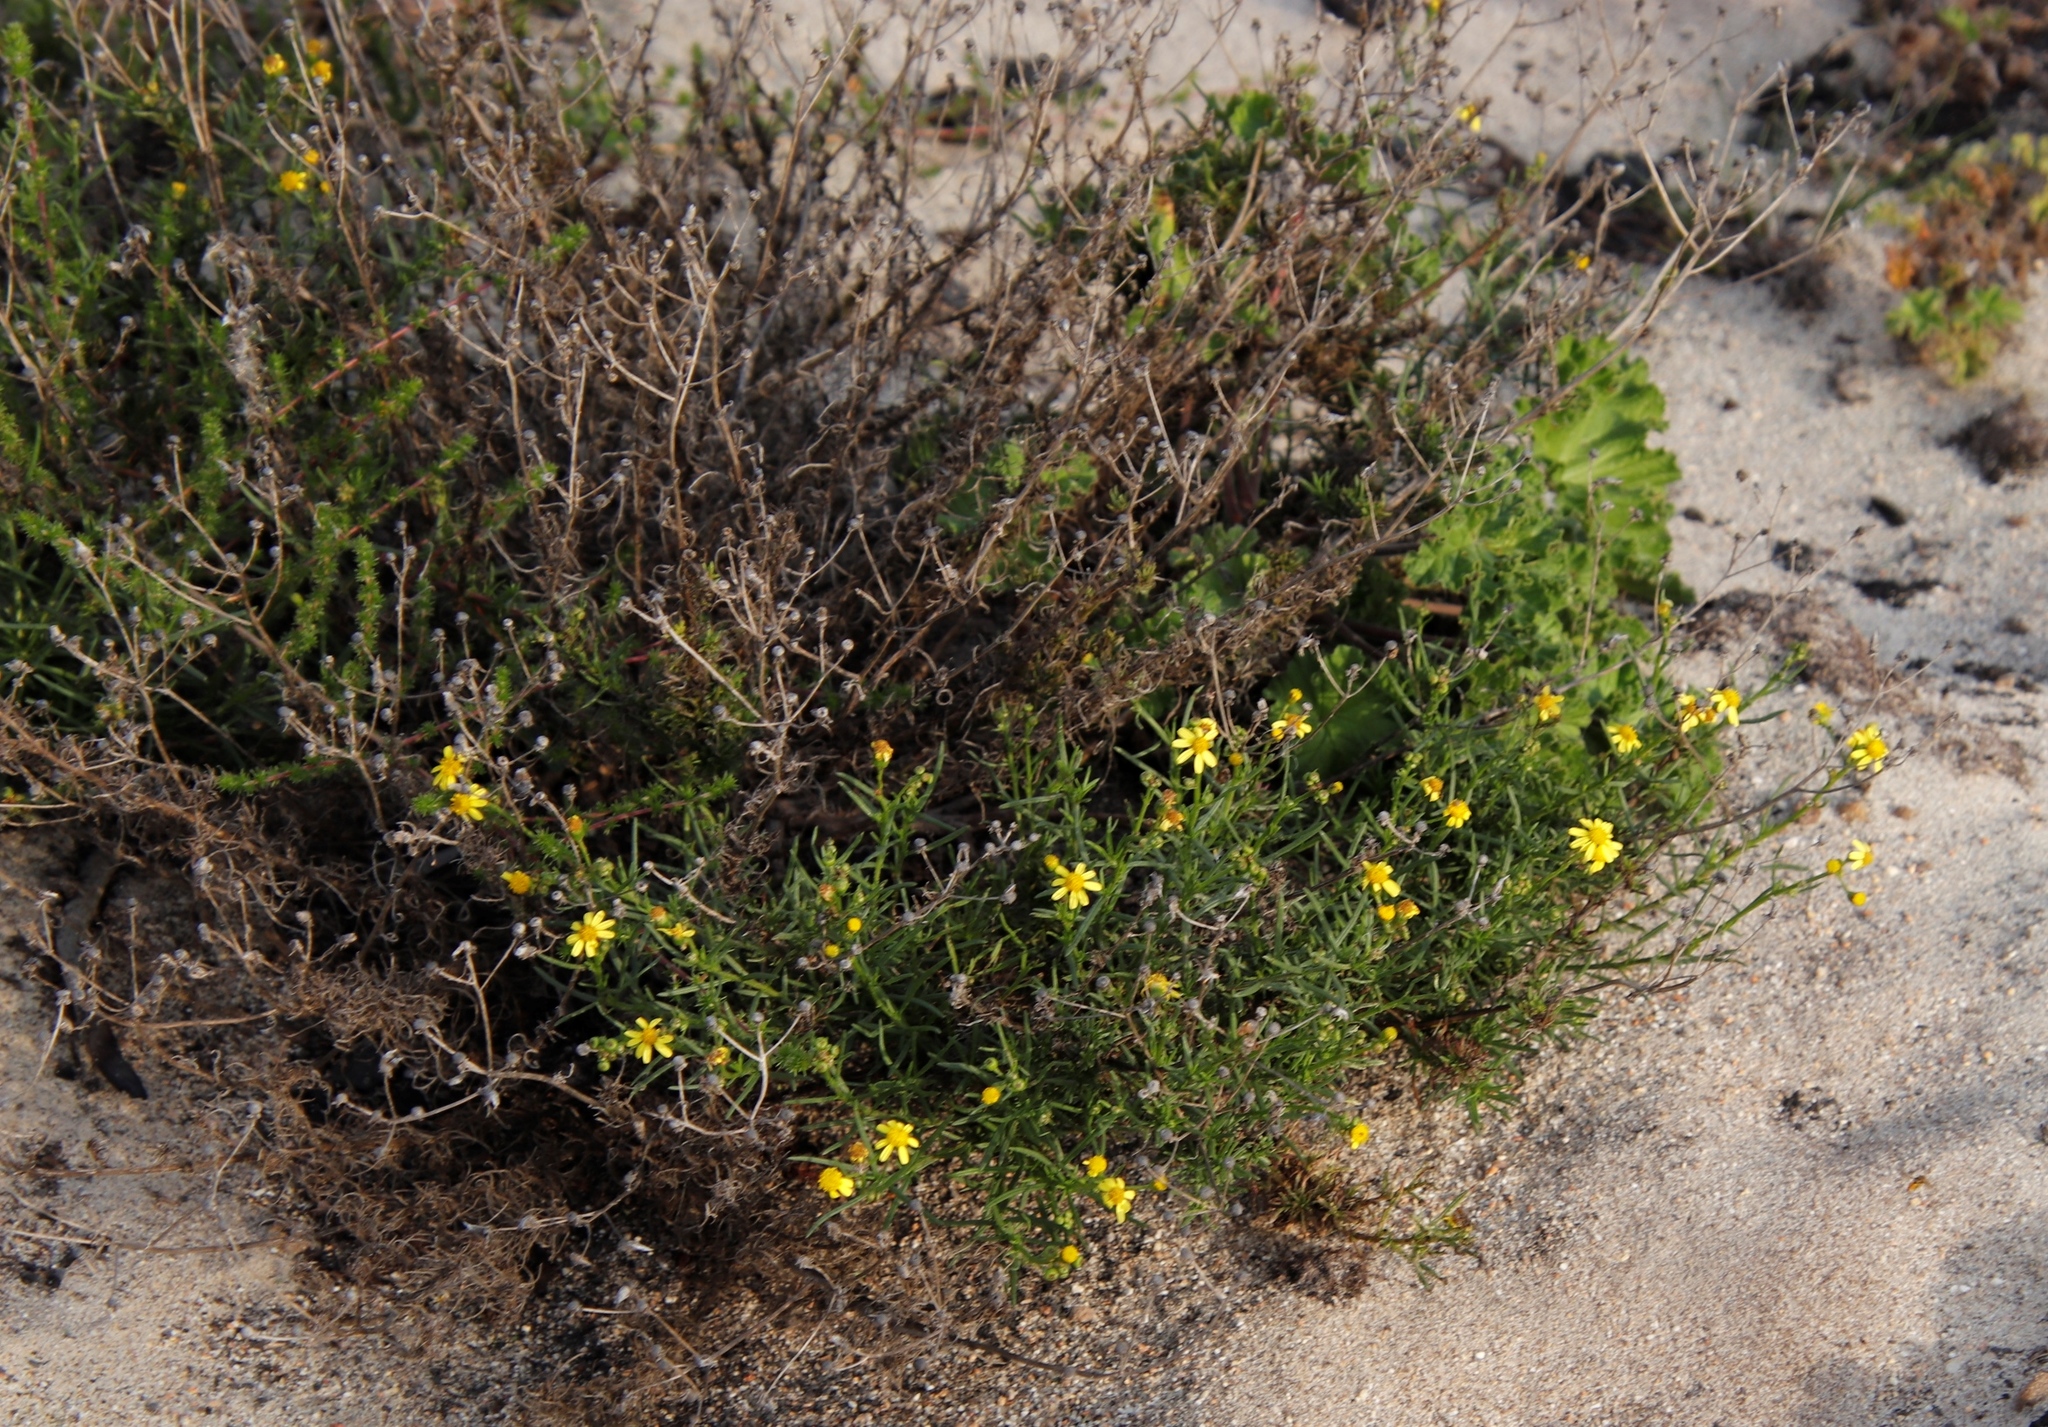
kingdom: Plantae
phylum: Tracheophyta
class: Magnoliopsida
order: Asterales
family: Asteraceae
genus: Senecio
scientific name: Senecio burchellii
